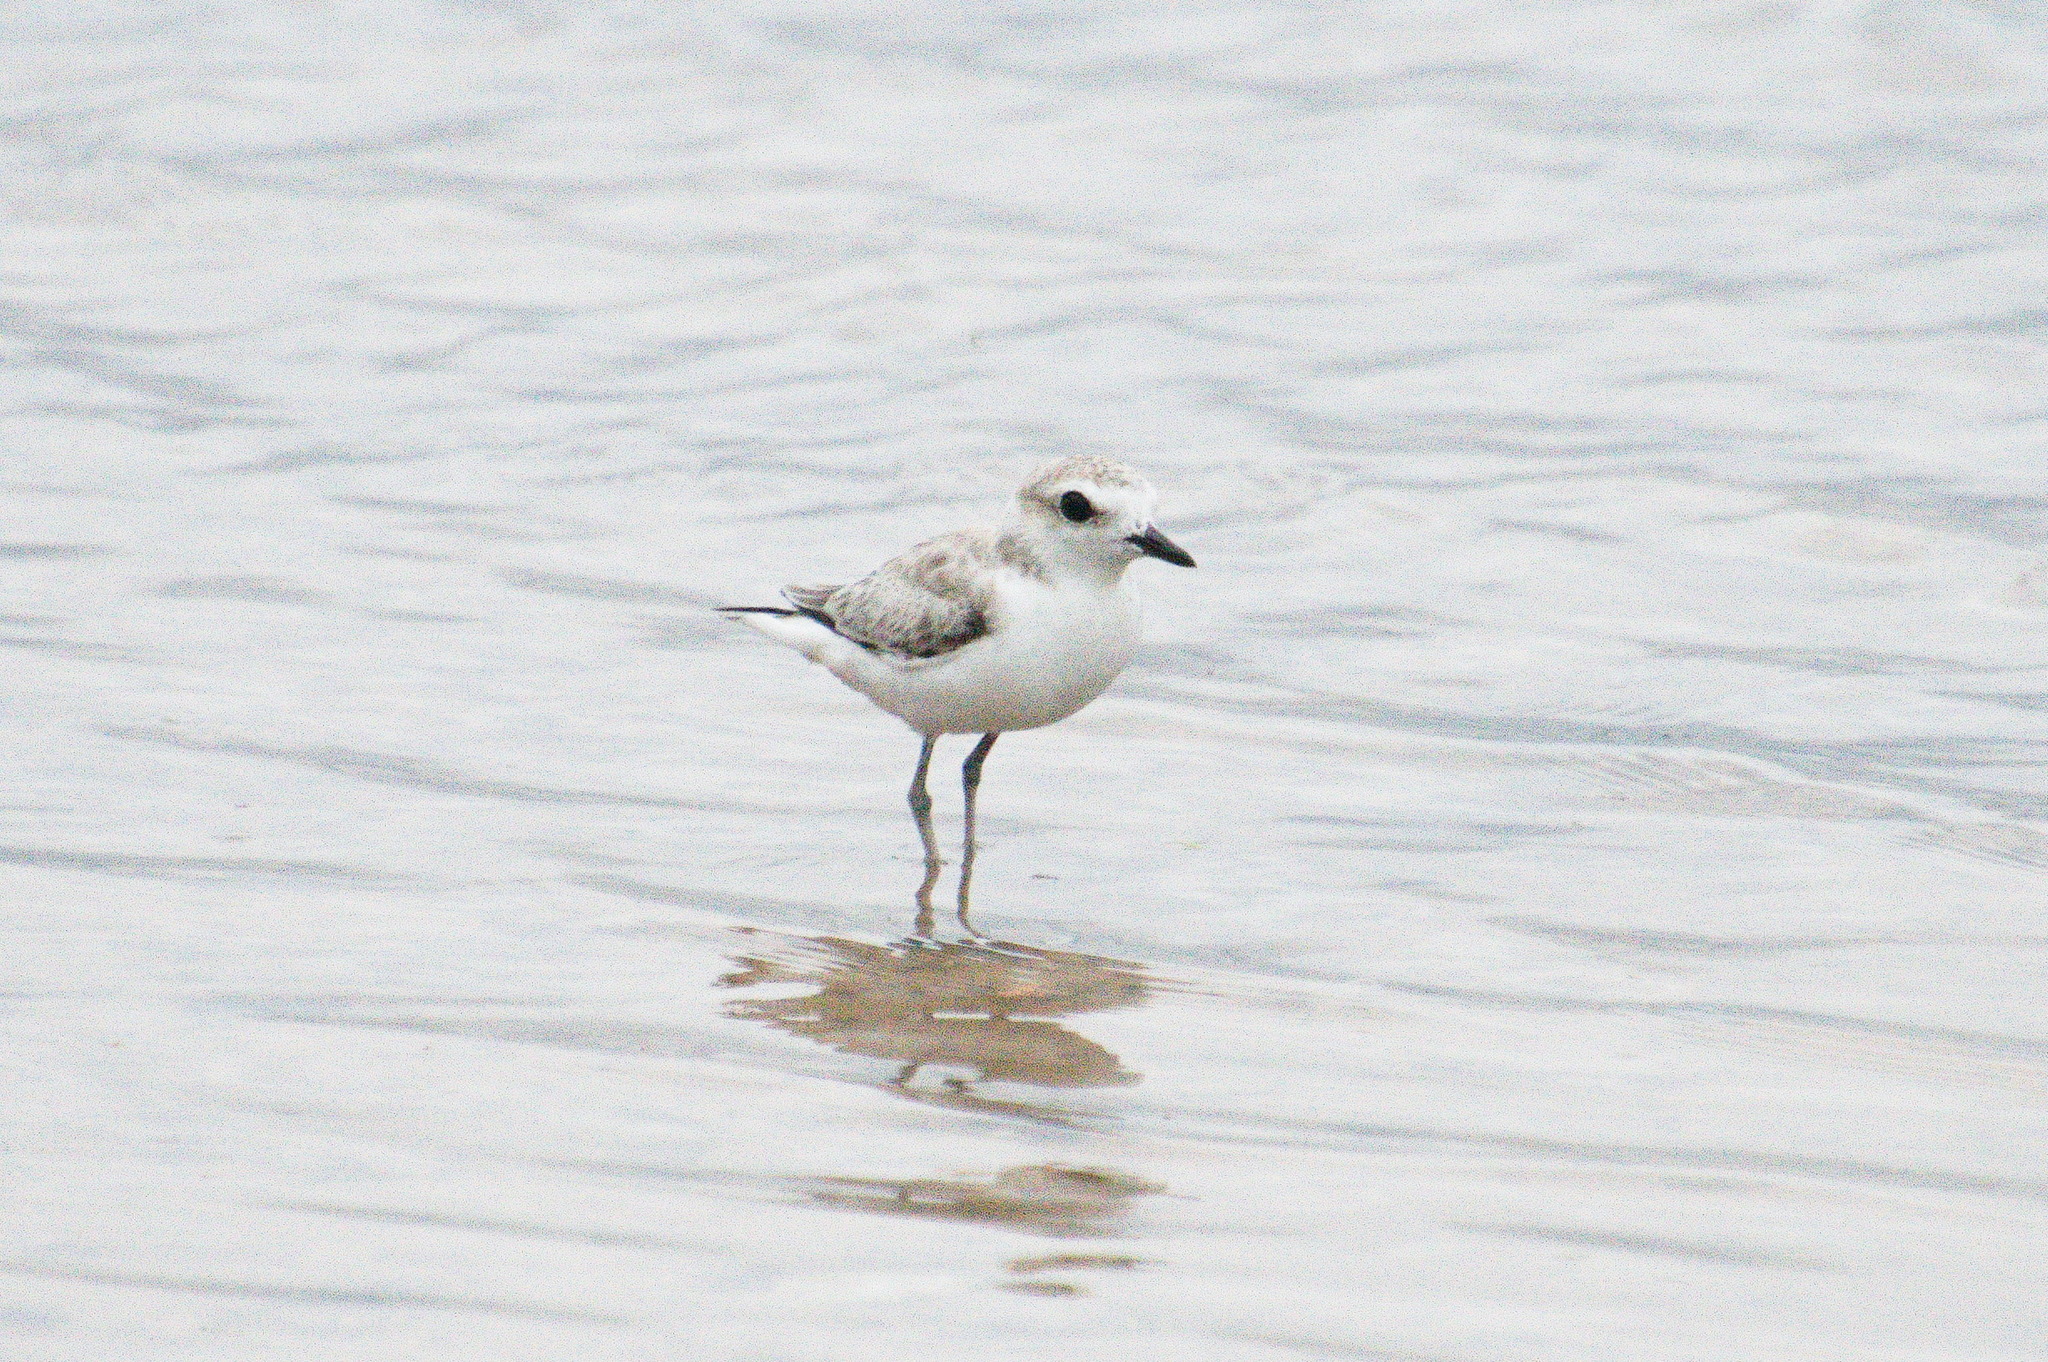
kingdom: Animalia
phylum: Chordata
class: Aves
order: Charadriiformes
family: Charadriidae
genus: Anarhynchus
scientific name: Anarhynchus
